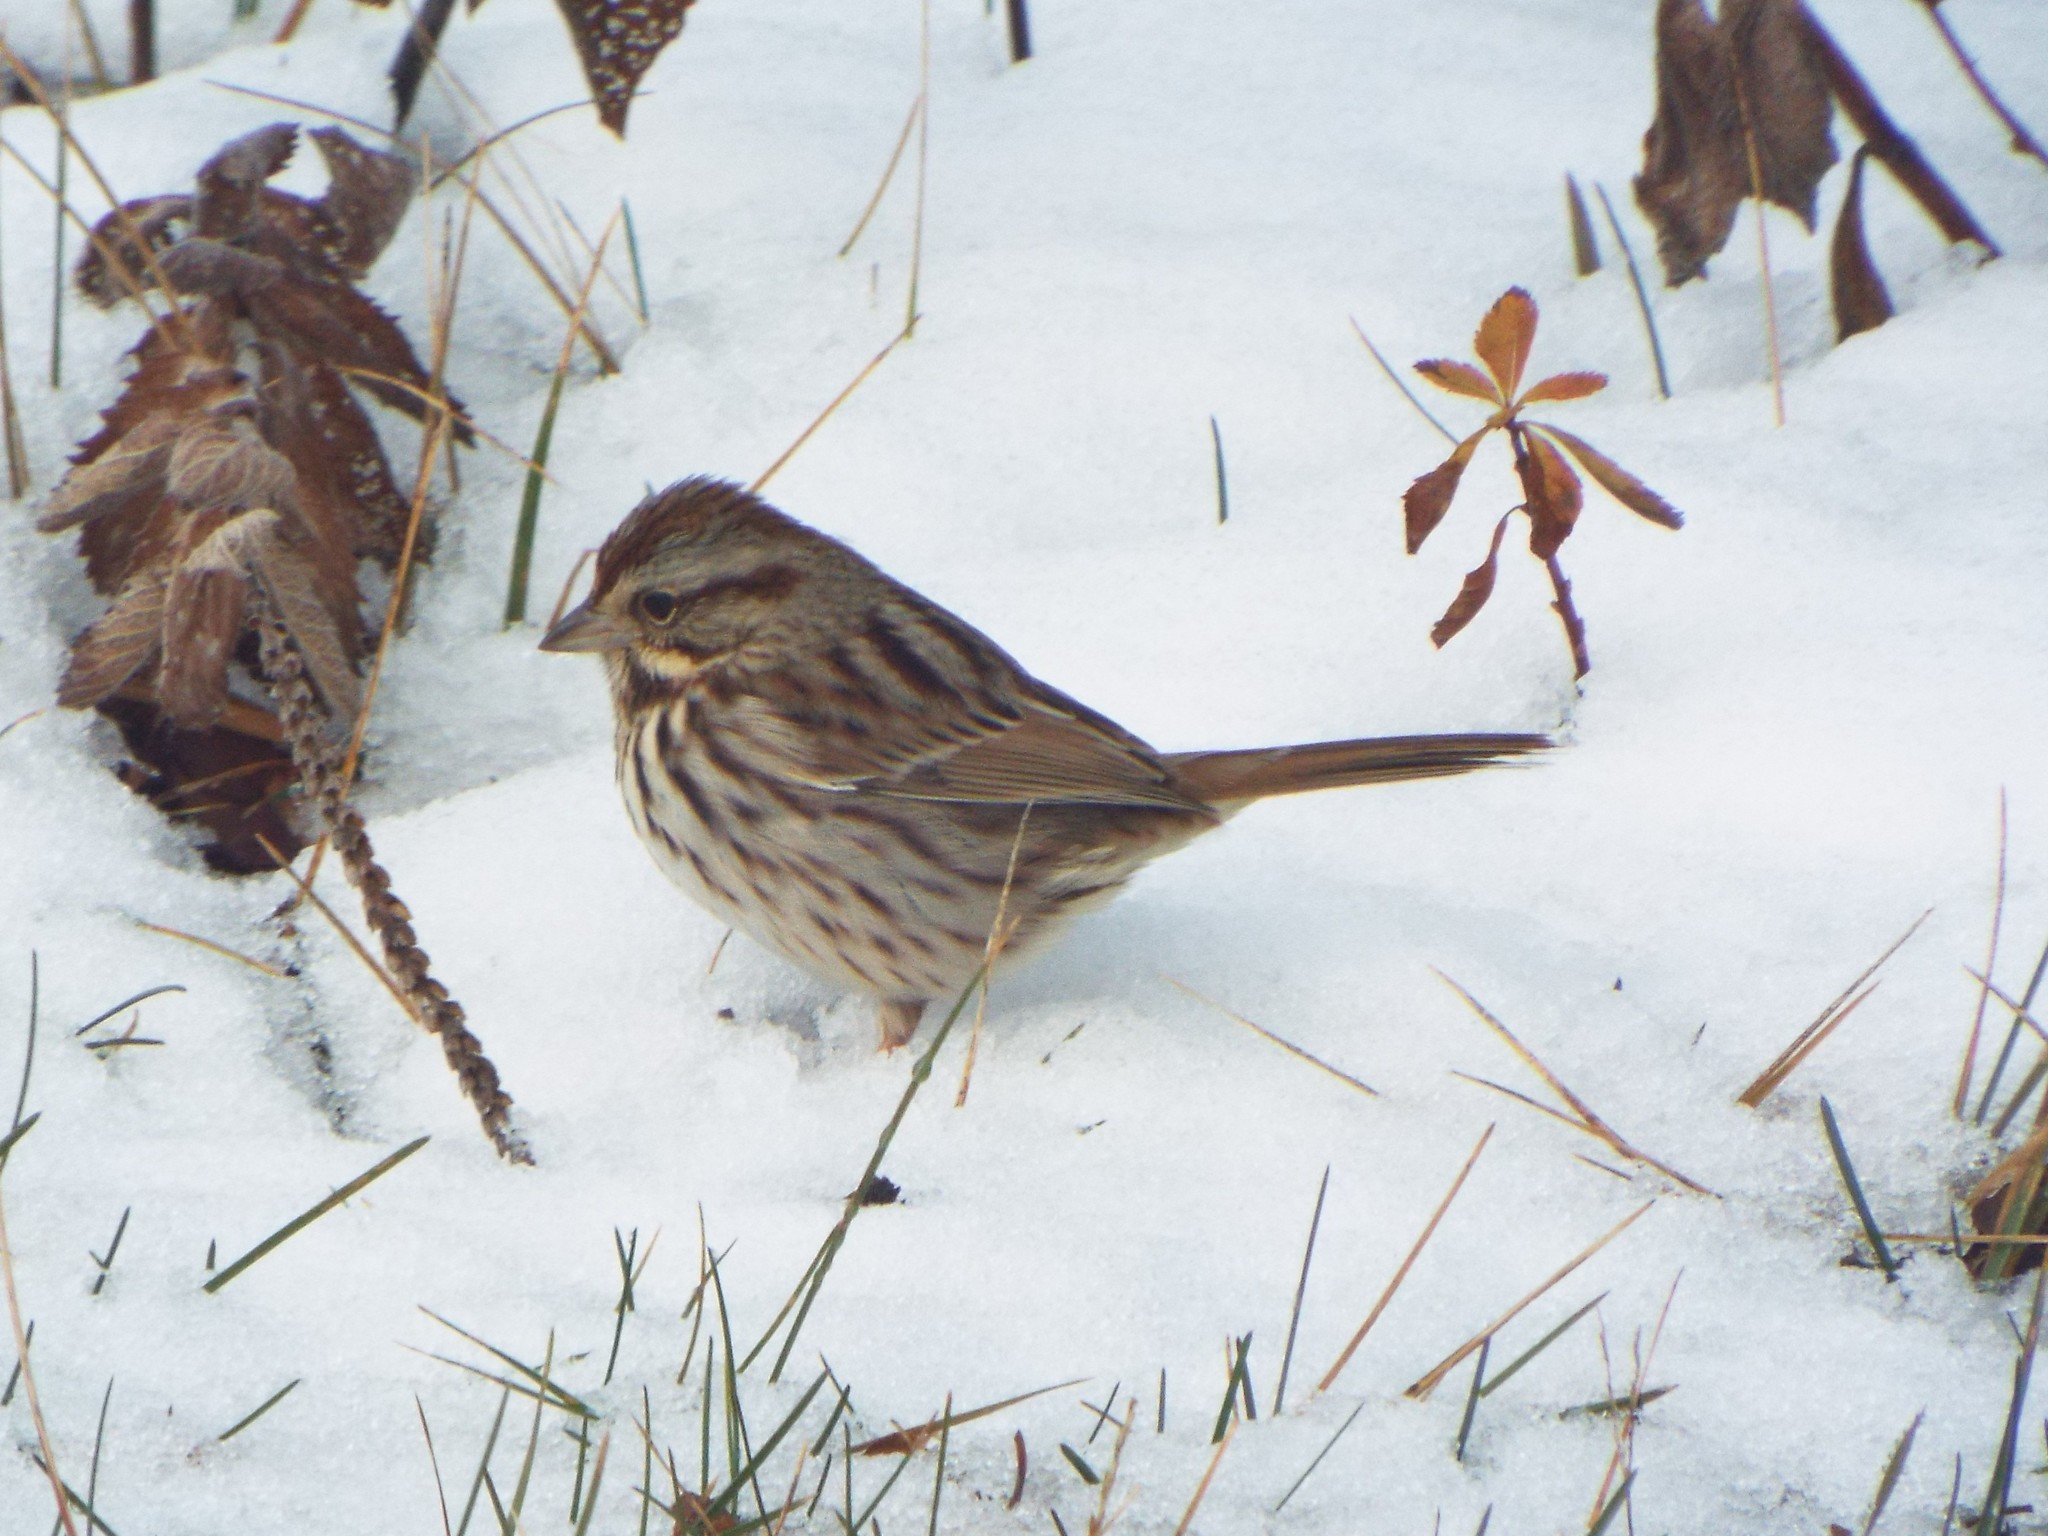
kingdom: Animalia
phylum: Chordata
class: Aves
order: Passeriformes
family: Passerellidae
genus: Melospiza
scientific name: Melospiza melodia
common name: Song sparrow
